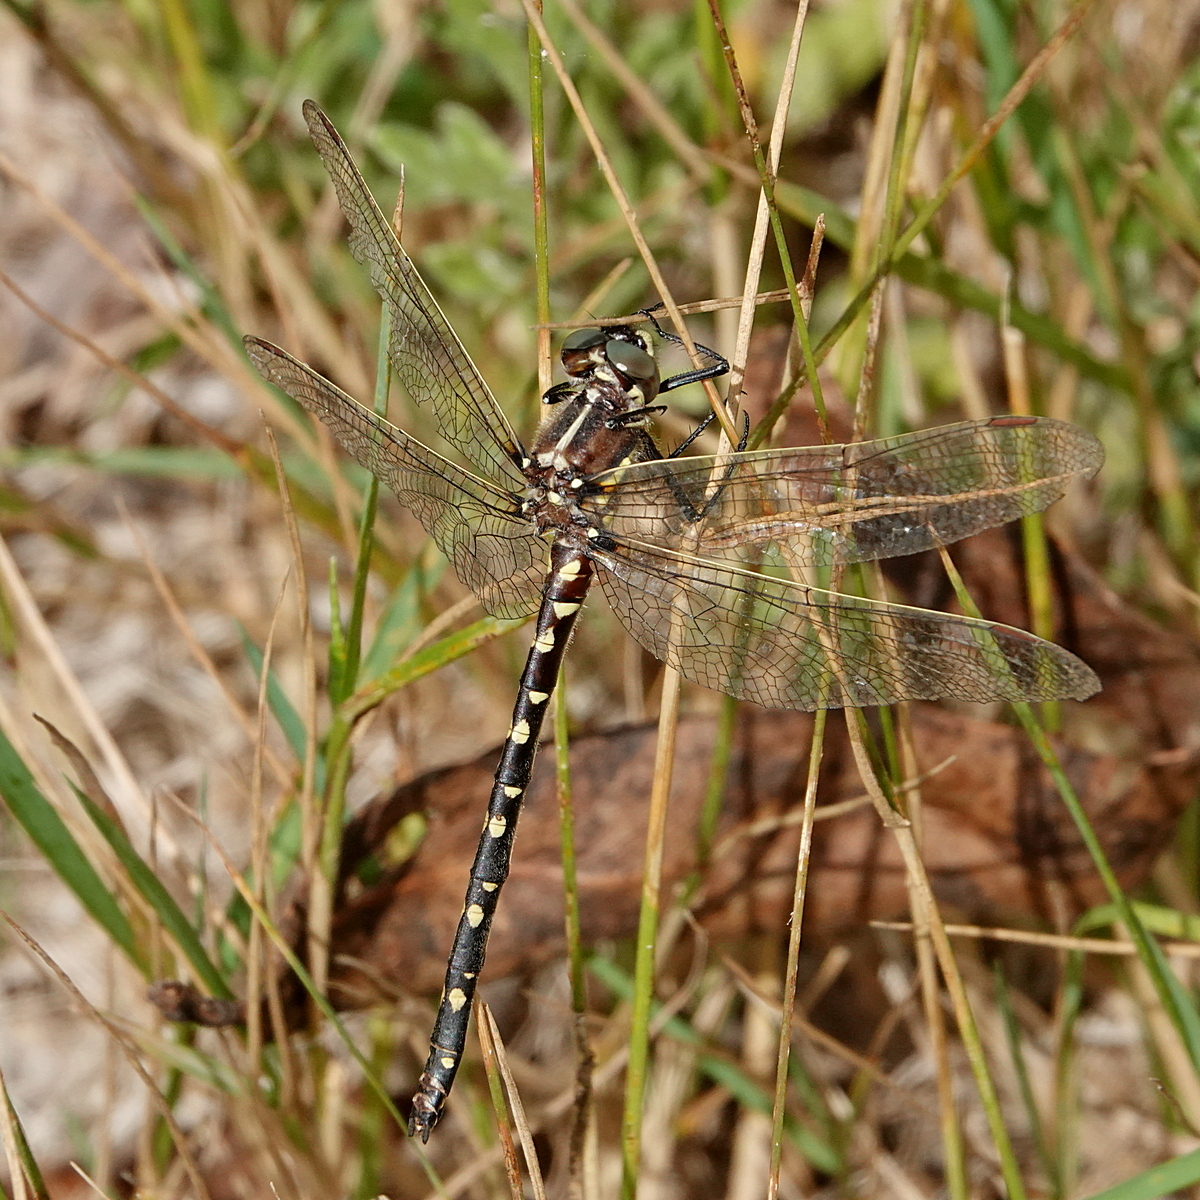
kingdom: Animalia
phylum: Arthropoda
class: Insecta
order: Odonata
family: Synthemistidae
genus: Synthemis
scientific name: Synthemis eustalacta
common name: Swamp tigertail
